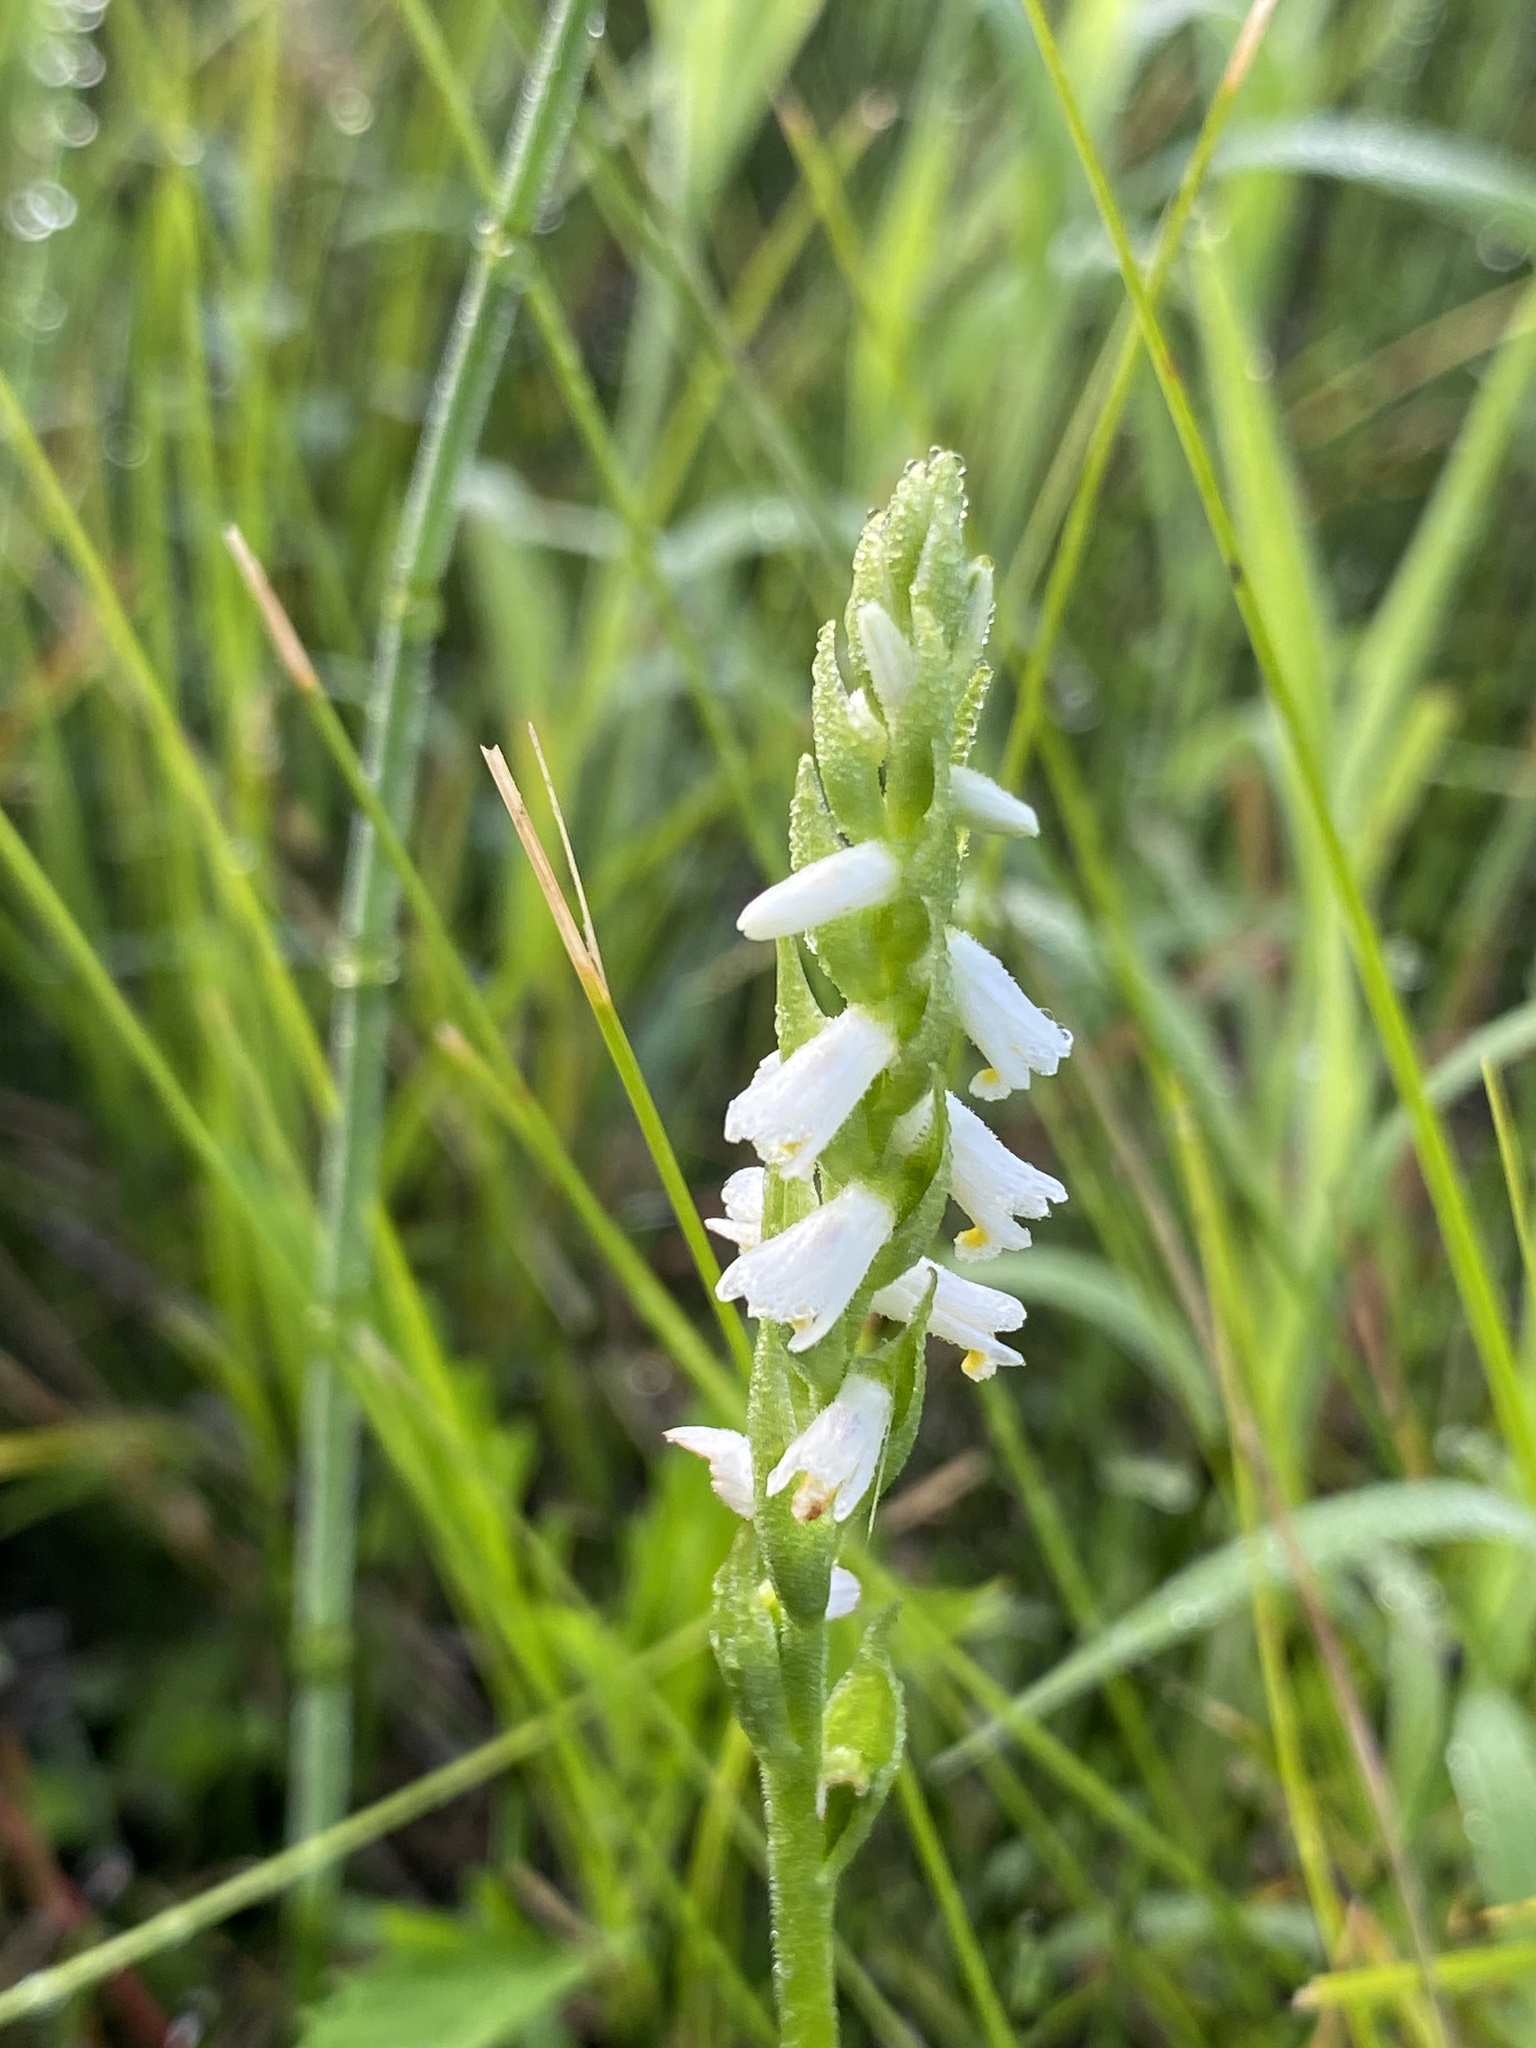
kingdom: Plantae
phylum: Tracheophyta
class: Liliopsida
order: Asparagales
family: Orchidaceae
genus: Spiranthes
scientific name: Spiranthes lucida
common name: Broad-leaved ladies'-tresses
